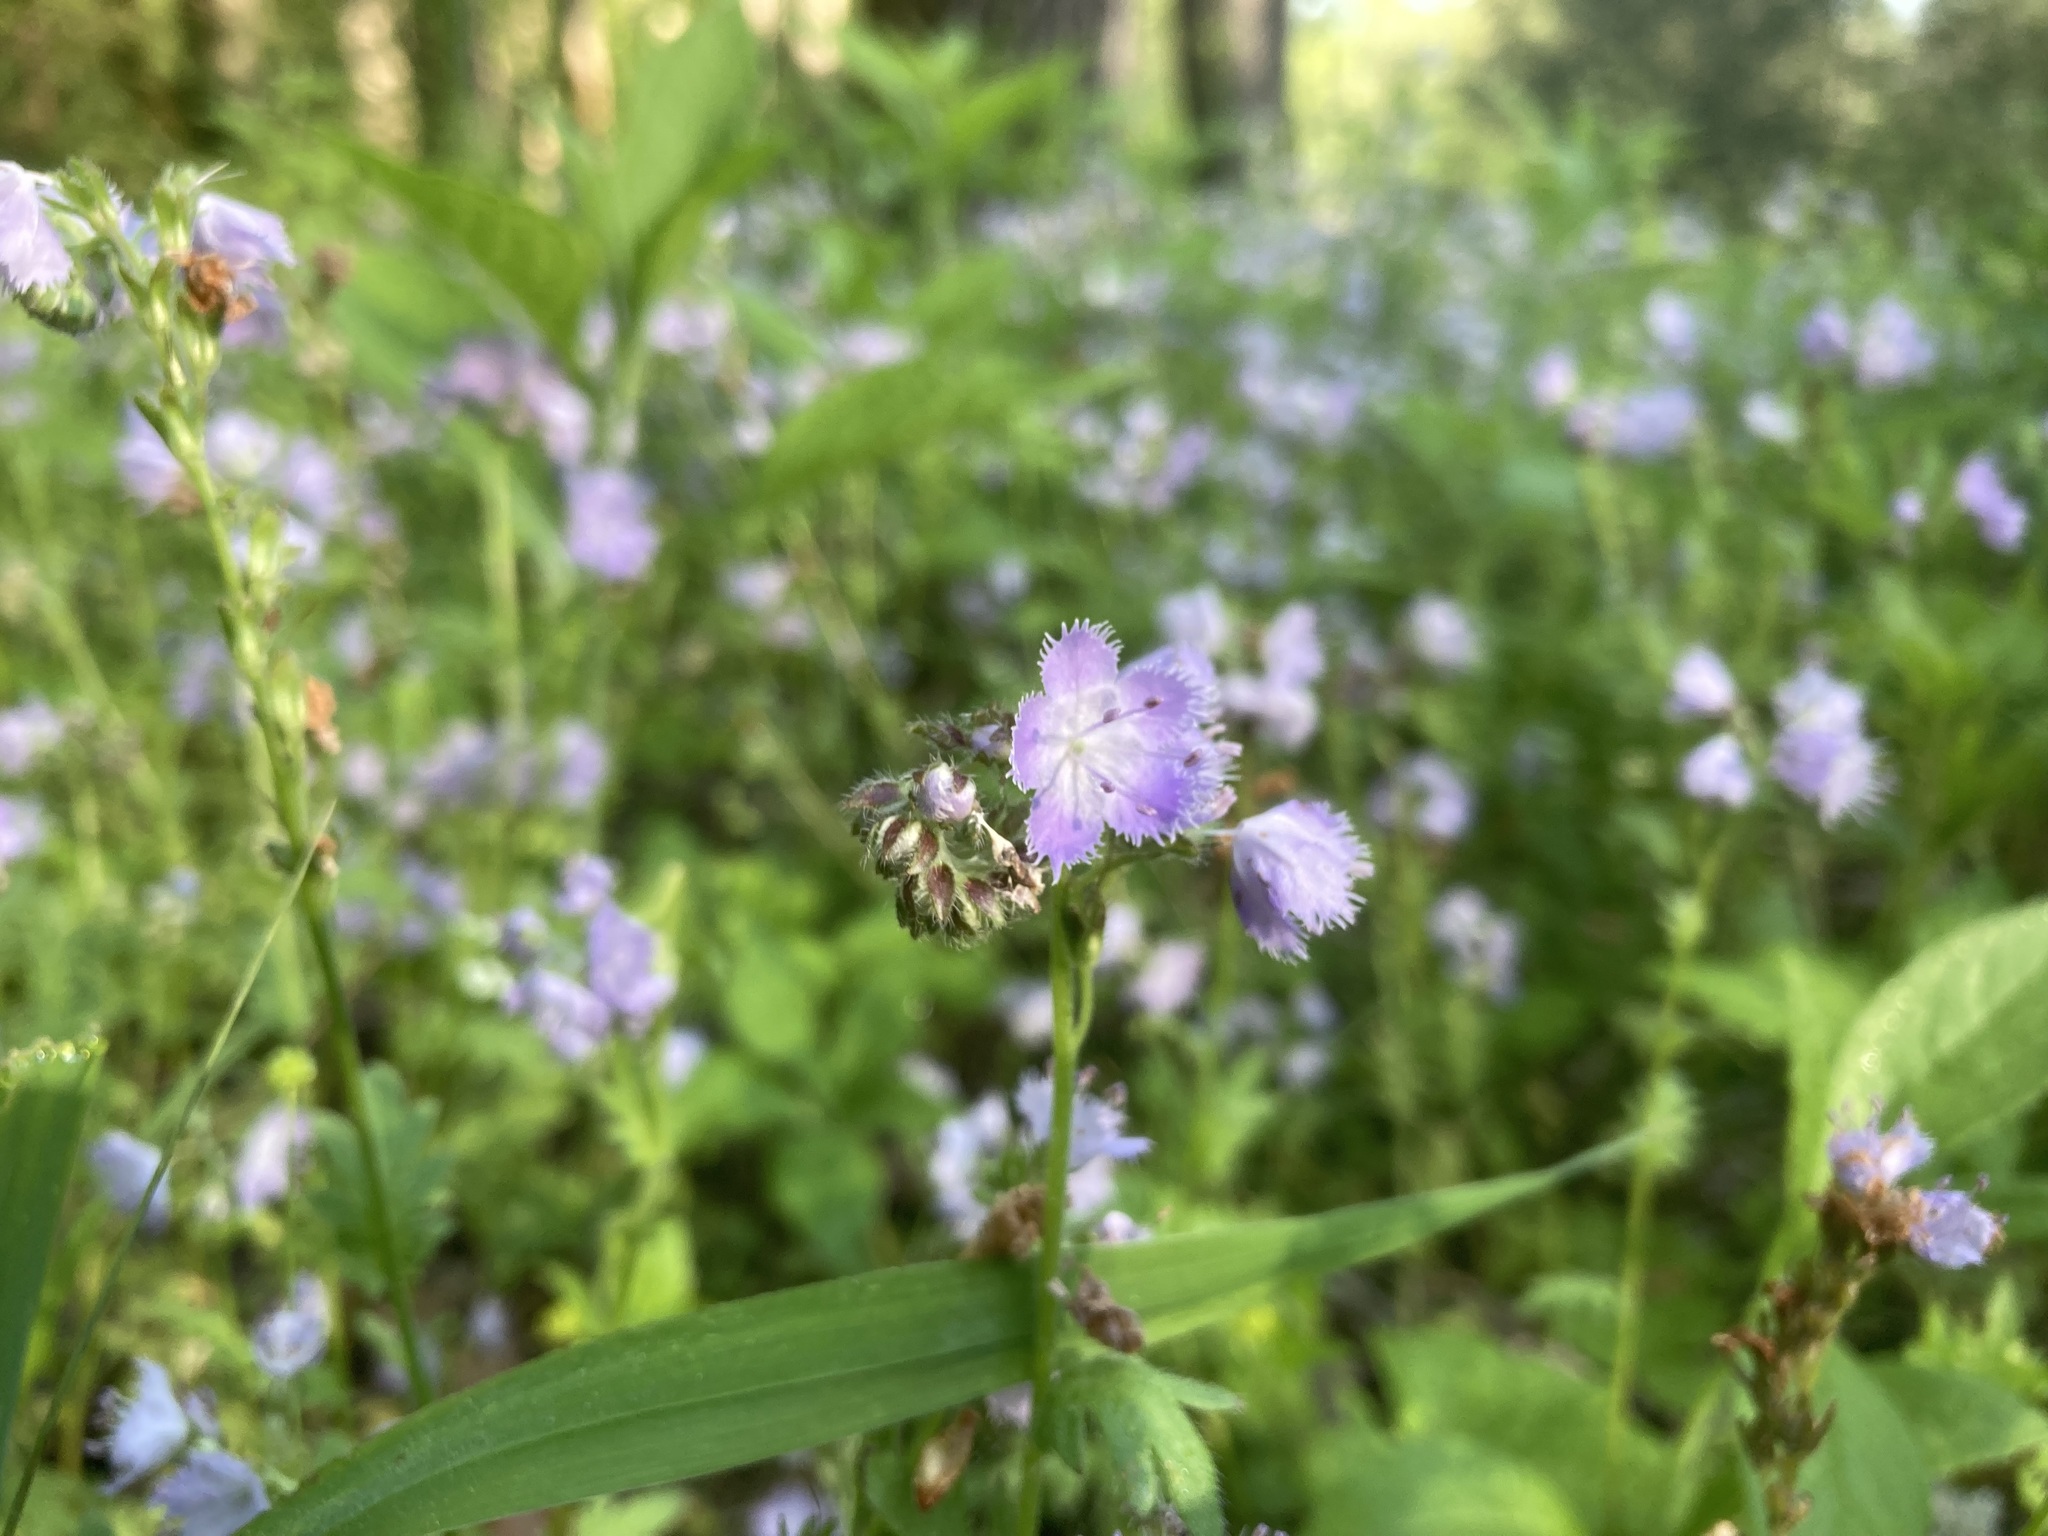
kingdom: Plantae
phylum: Tracheophyta
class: Magnoliopsida
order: Boraginales
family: Hydrophyllaceae
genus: Phacelia
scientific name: Phacelia purshii
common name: Miami-mist
